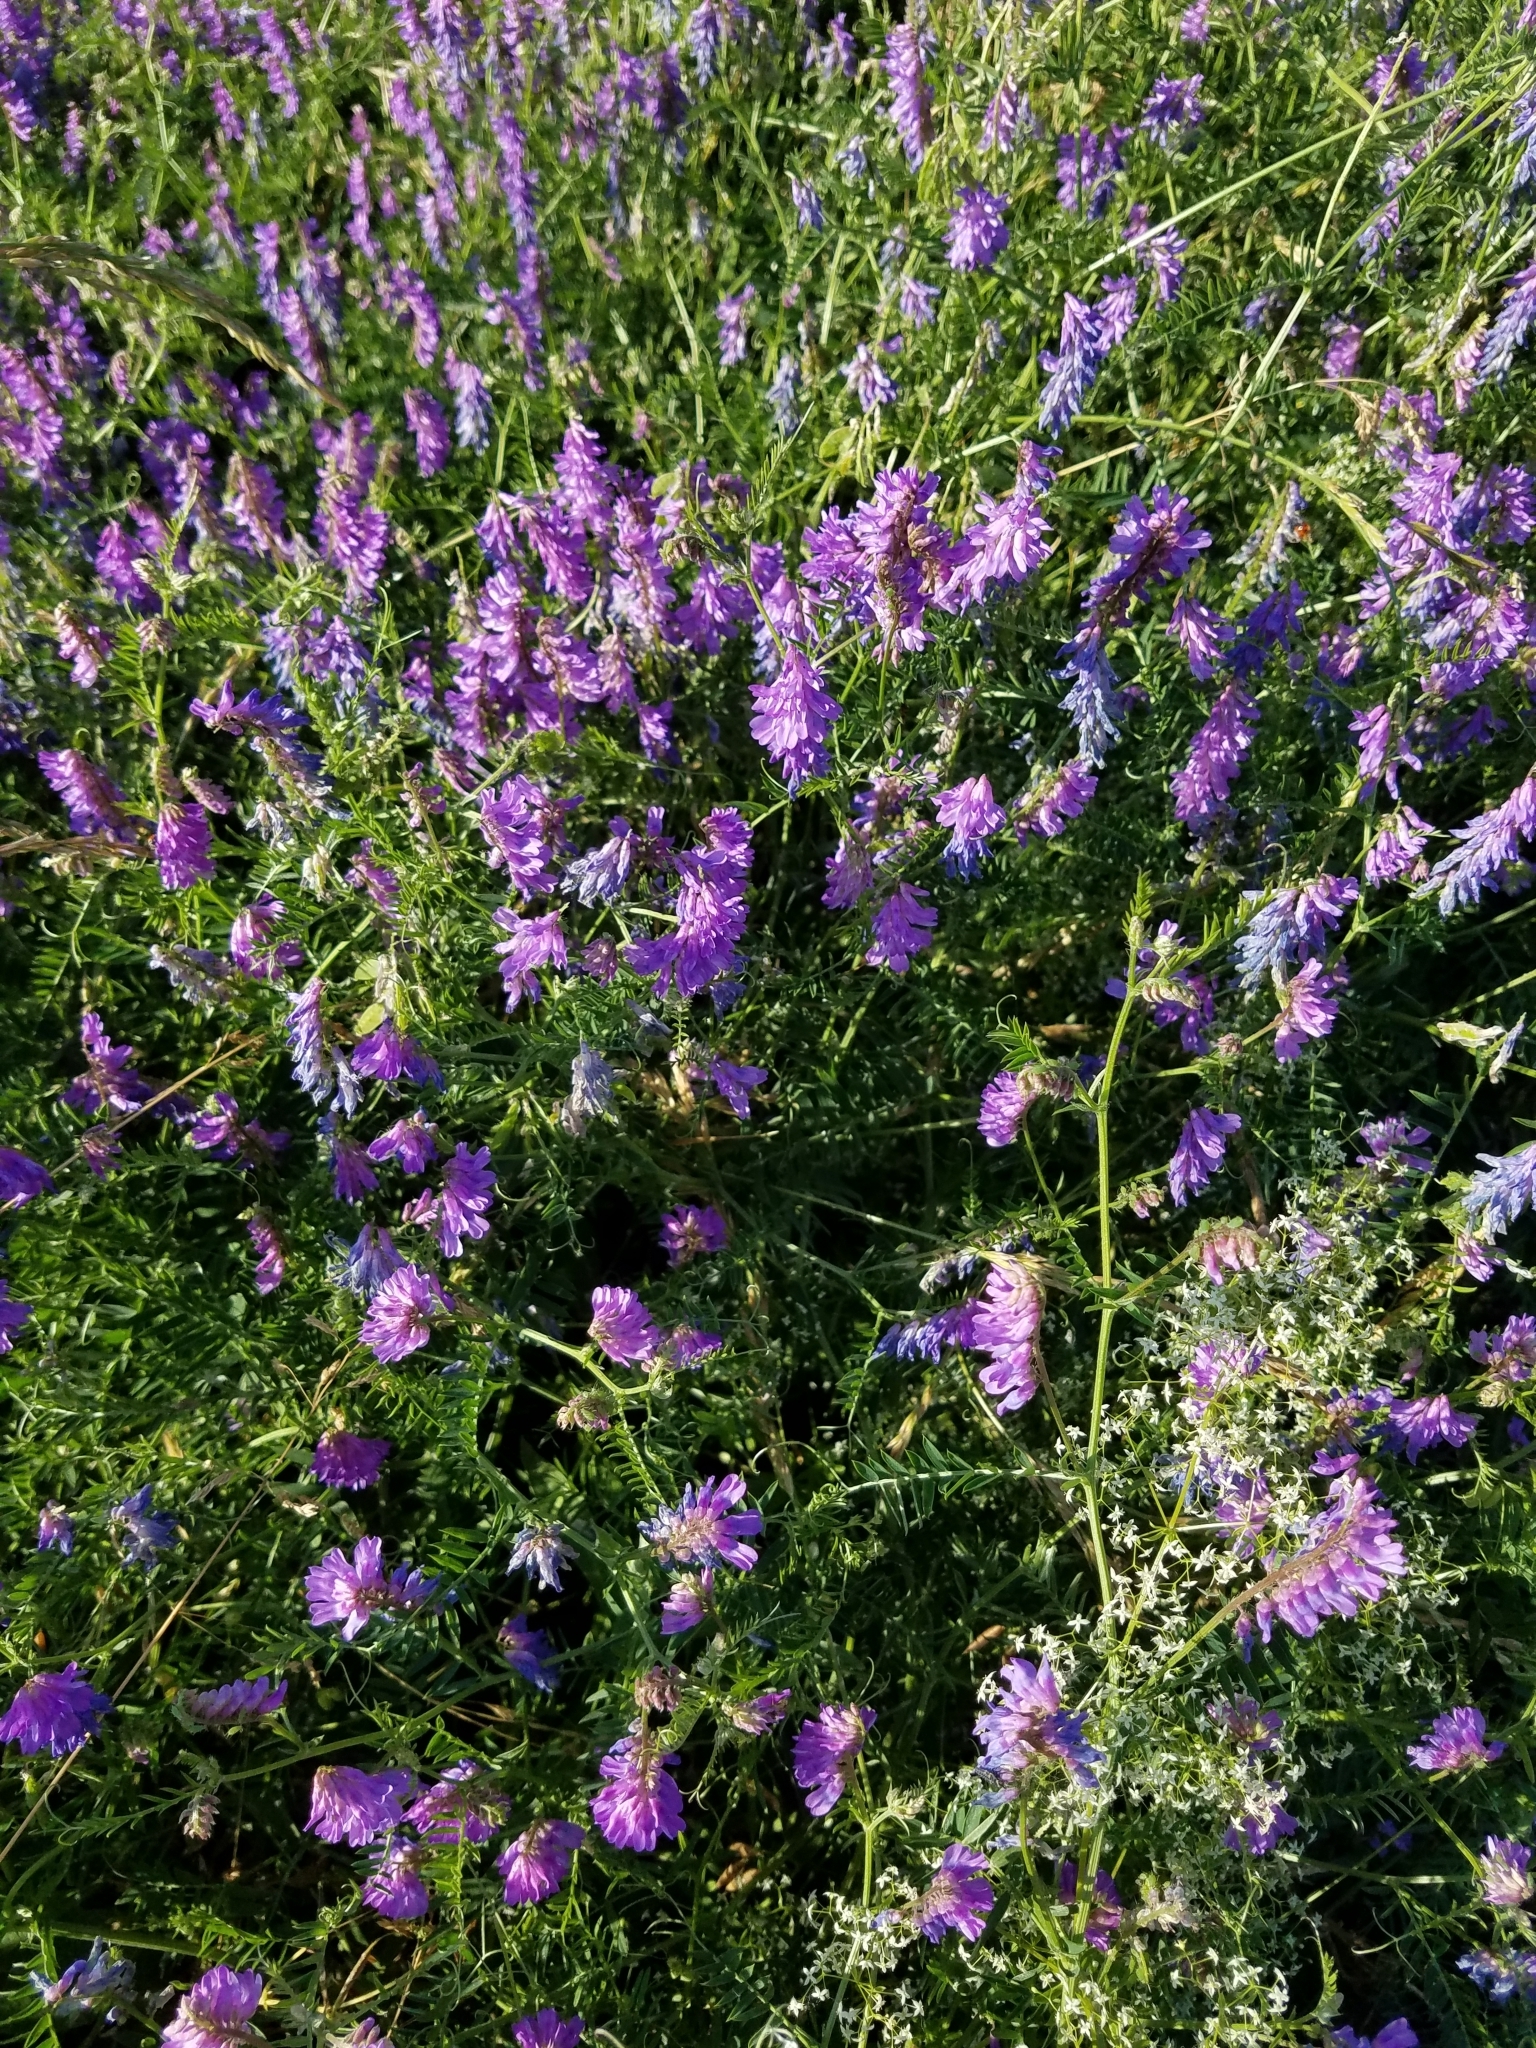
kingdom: Plantae
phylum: Tracheophyta
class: Magnoliopsida
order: Fabales
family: Fabaceae
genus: Vicia
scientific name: Vicia cracca
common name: Bird vetch
